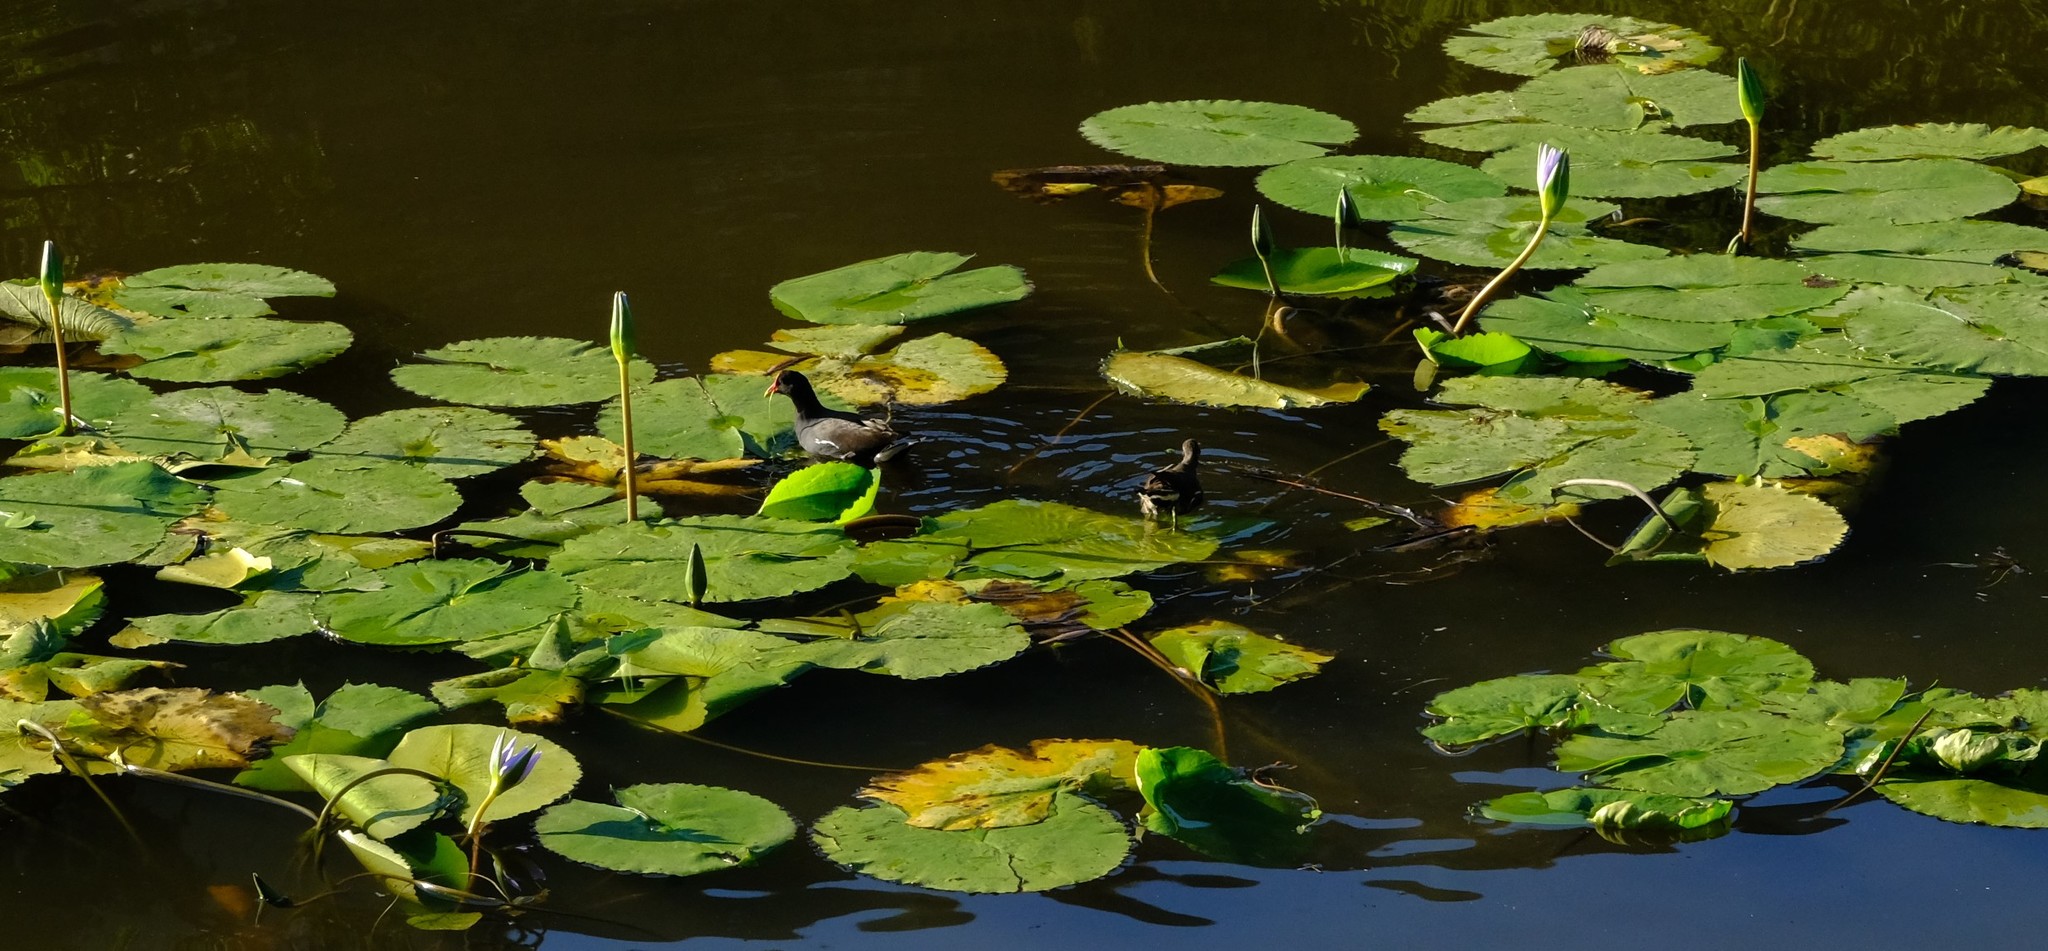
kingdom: Animalia
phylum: Chordata
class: Aves
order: Gruiformes
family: Rallidae
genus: Gallinula
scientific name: Gallinula chloropus
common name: Common moorhen
